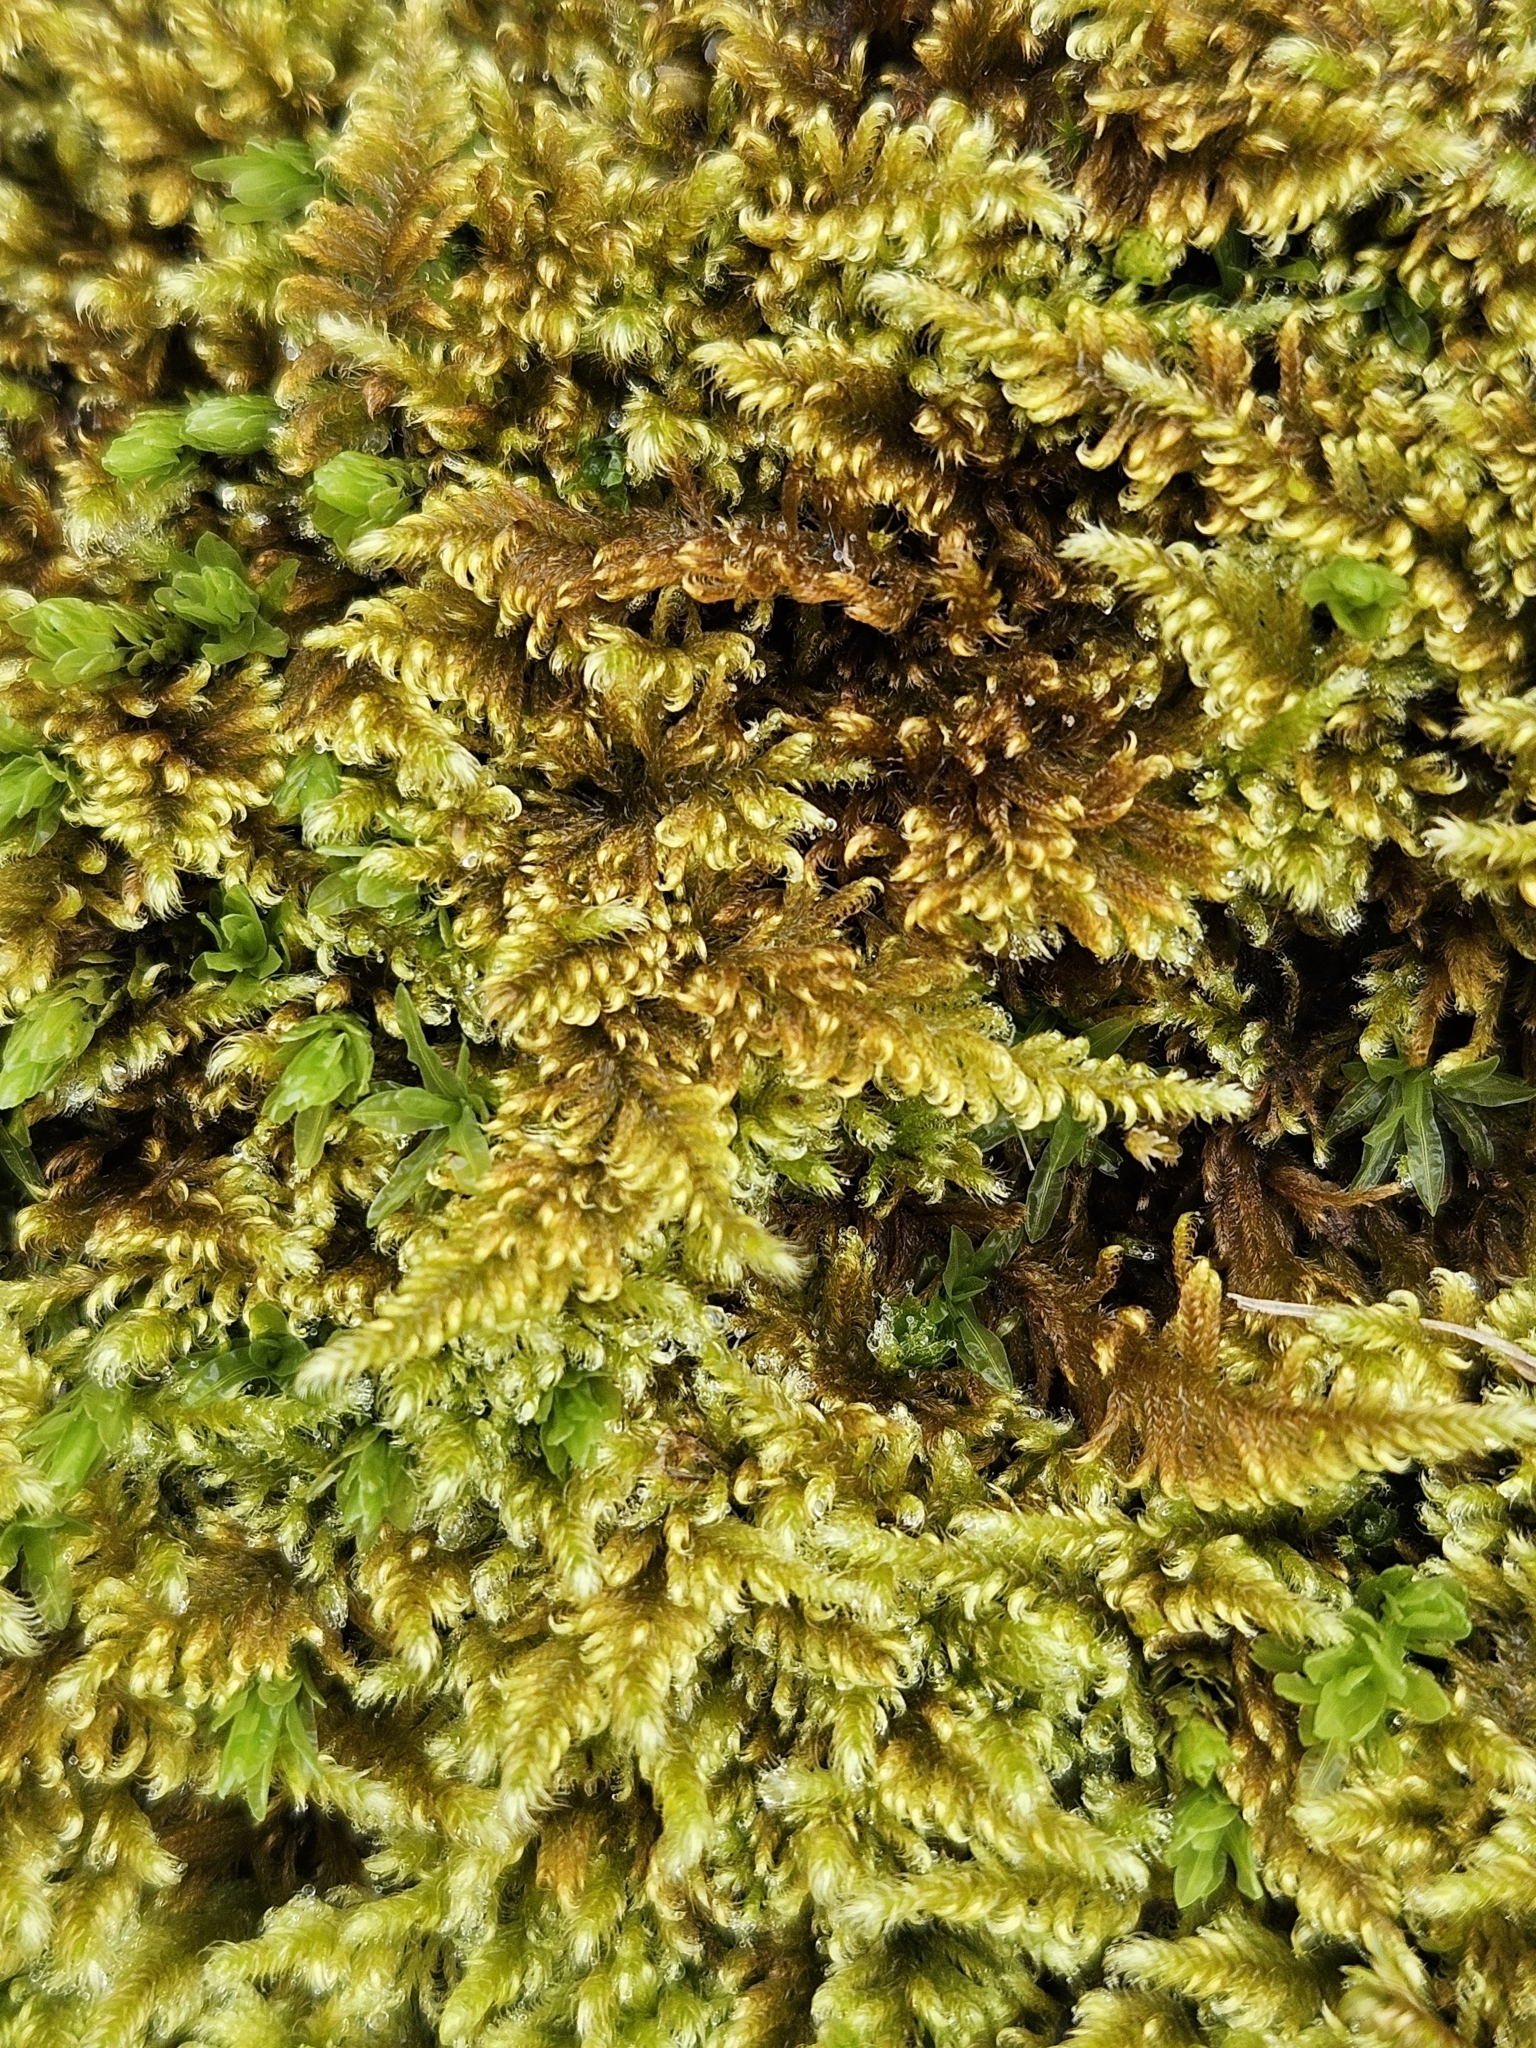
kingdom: Plantae
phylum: Bryophyta
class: Bryopsida
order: Hypnales
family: Myuriaceae
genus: Ctenidium
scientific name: Ctenidium molluscum
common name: Chalk comb-moss
